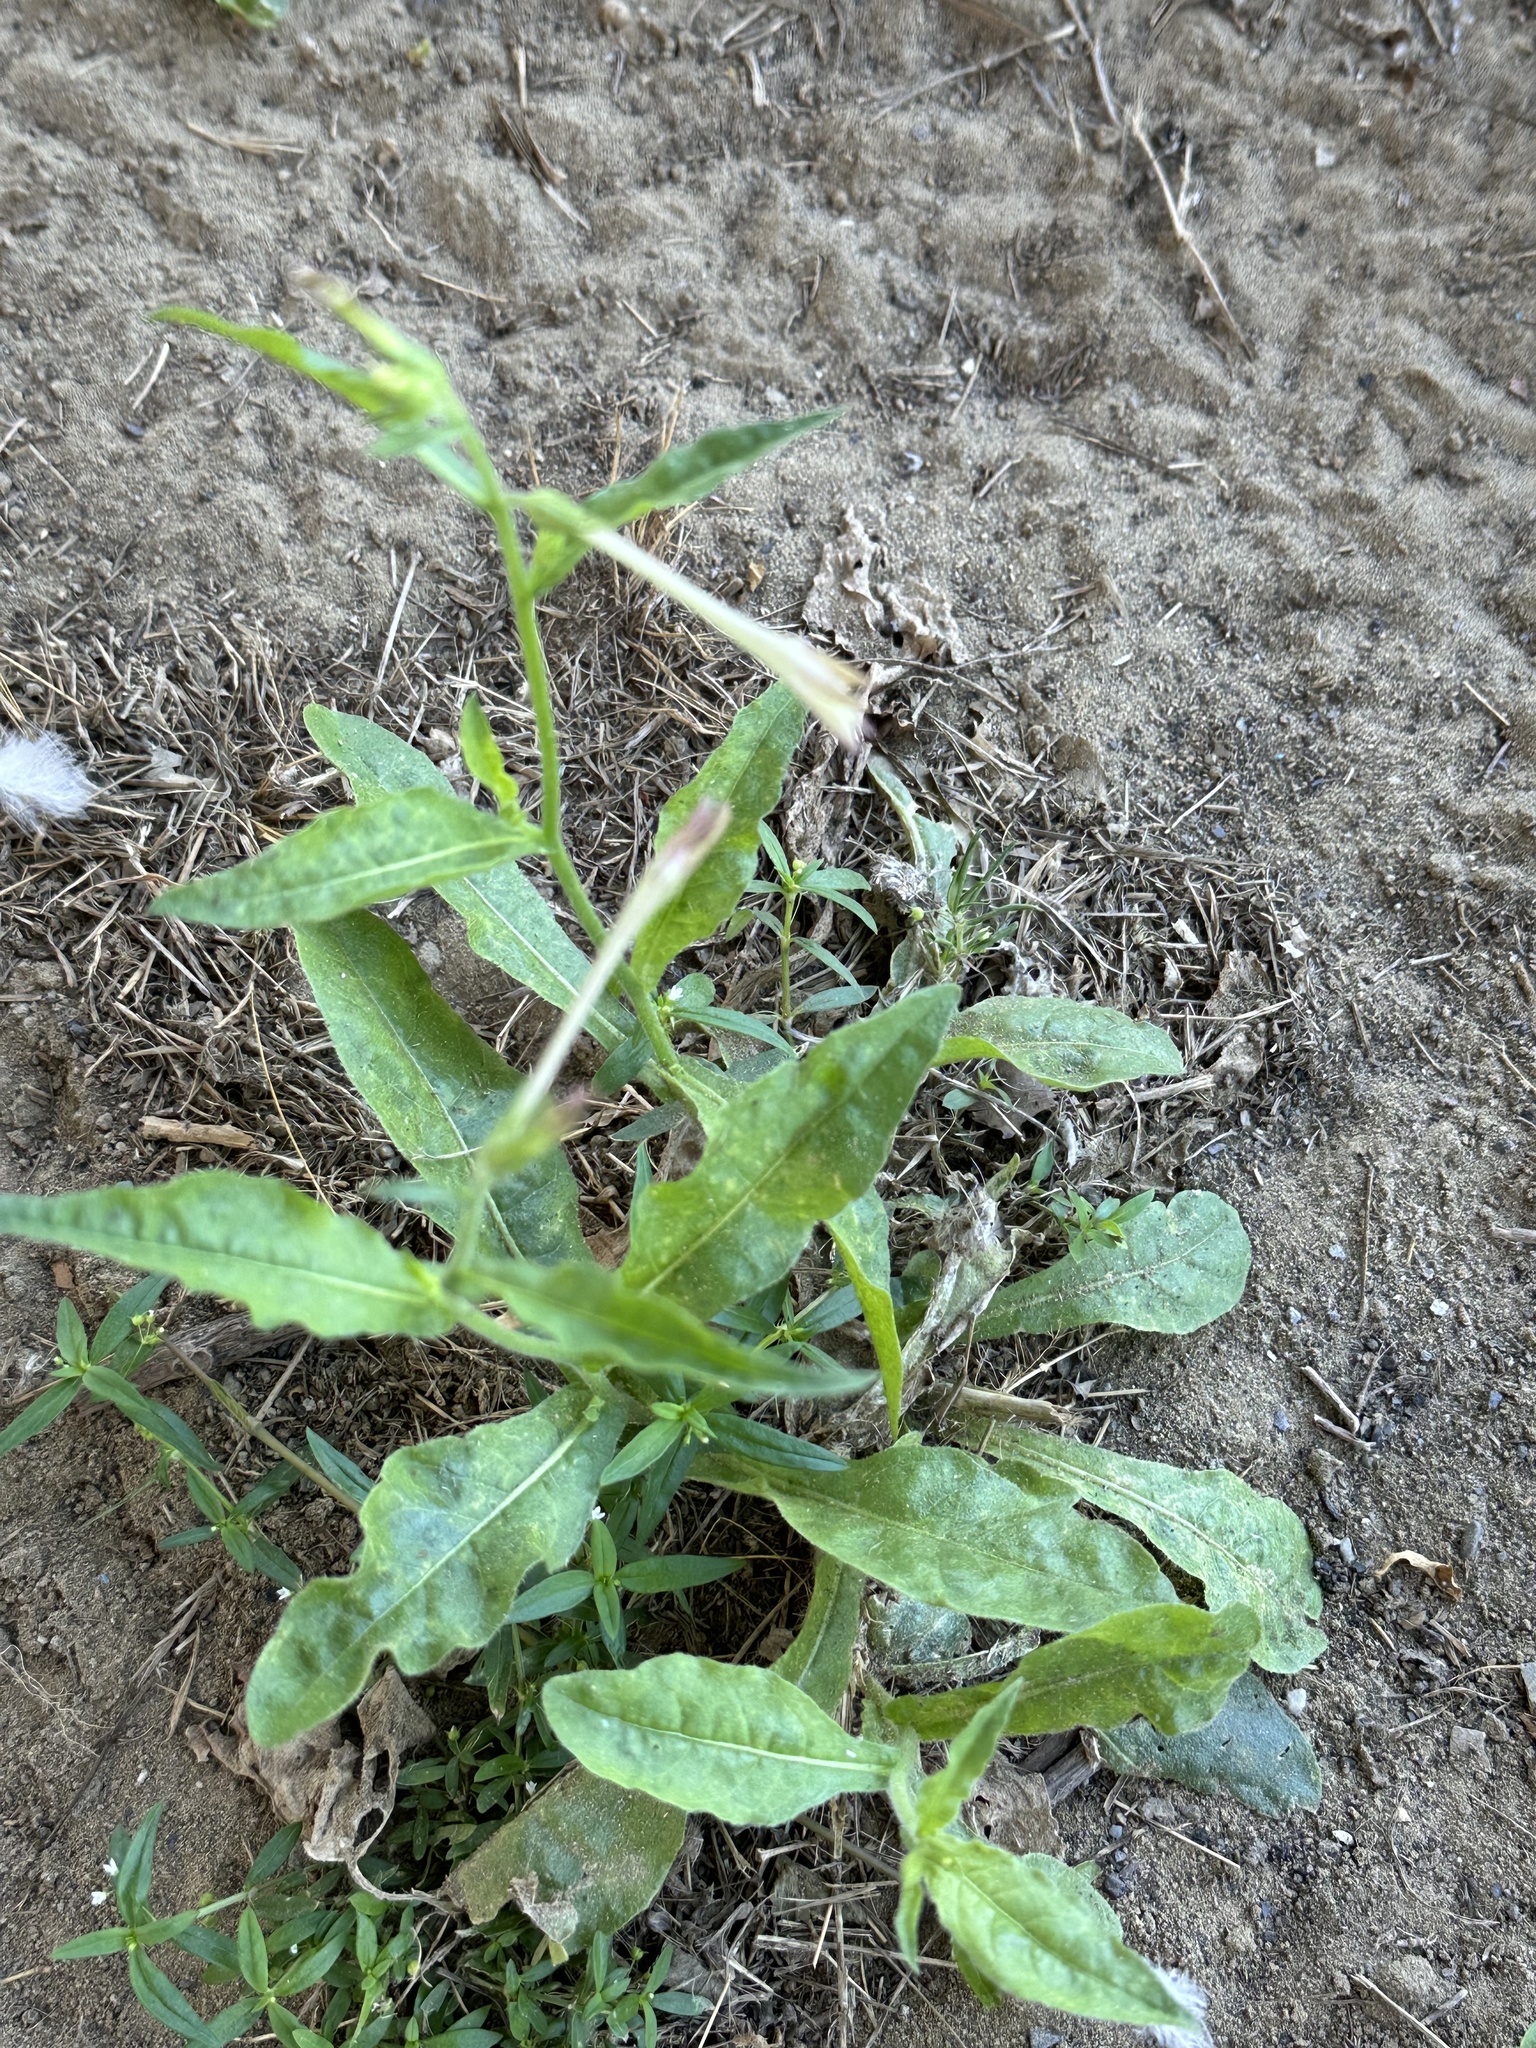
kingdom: Plantae
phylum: Tracheophyta
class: Magnoliopsida
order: Solanales
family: Solanaceae
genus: Nicotiana
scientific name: Nicotiana plumbaginifolia
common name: Tex-mex tobacco
